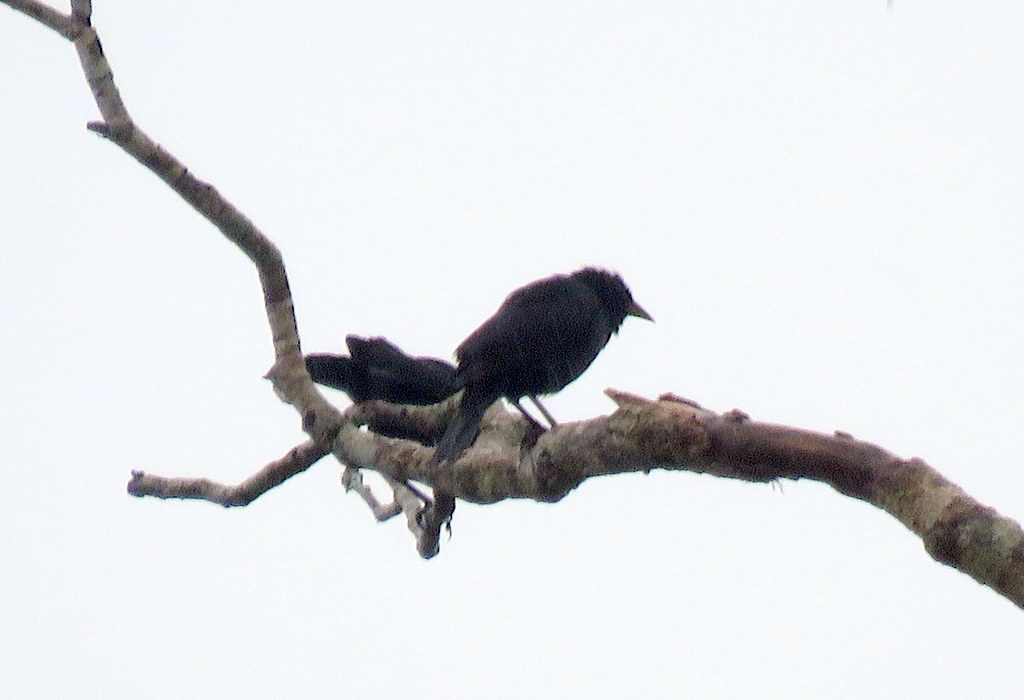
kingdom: Animalia
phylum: Chordata
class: Aves
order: Passeriformes
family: Icteridae
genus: Gnorimopsar
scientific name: Gnorimopsar chopi
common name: Chopi blackbird
